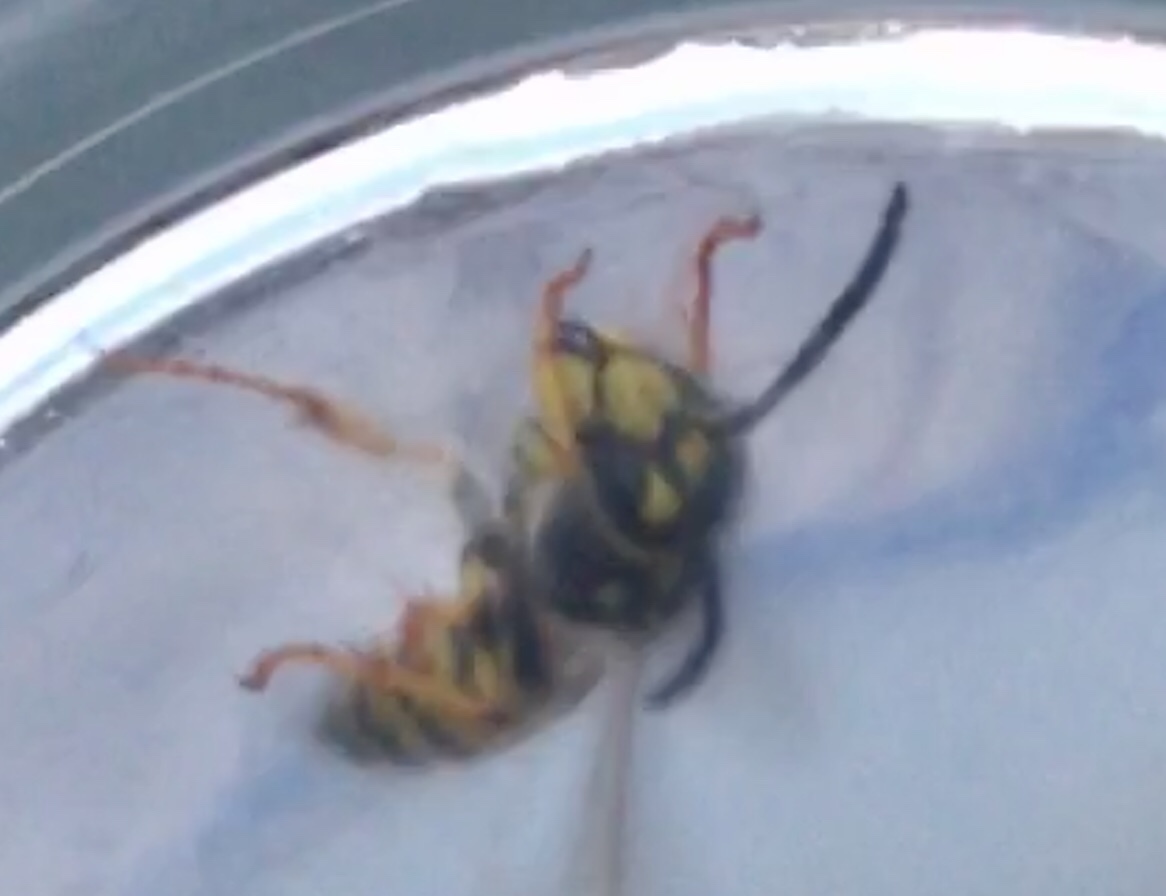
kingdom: Animalia
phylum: Arthropoda
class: Insecta
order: Hymenoptera
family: Vespidae
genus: Vespula
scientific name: Vespula germanica
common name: German wasp
